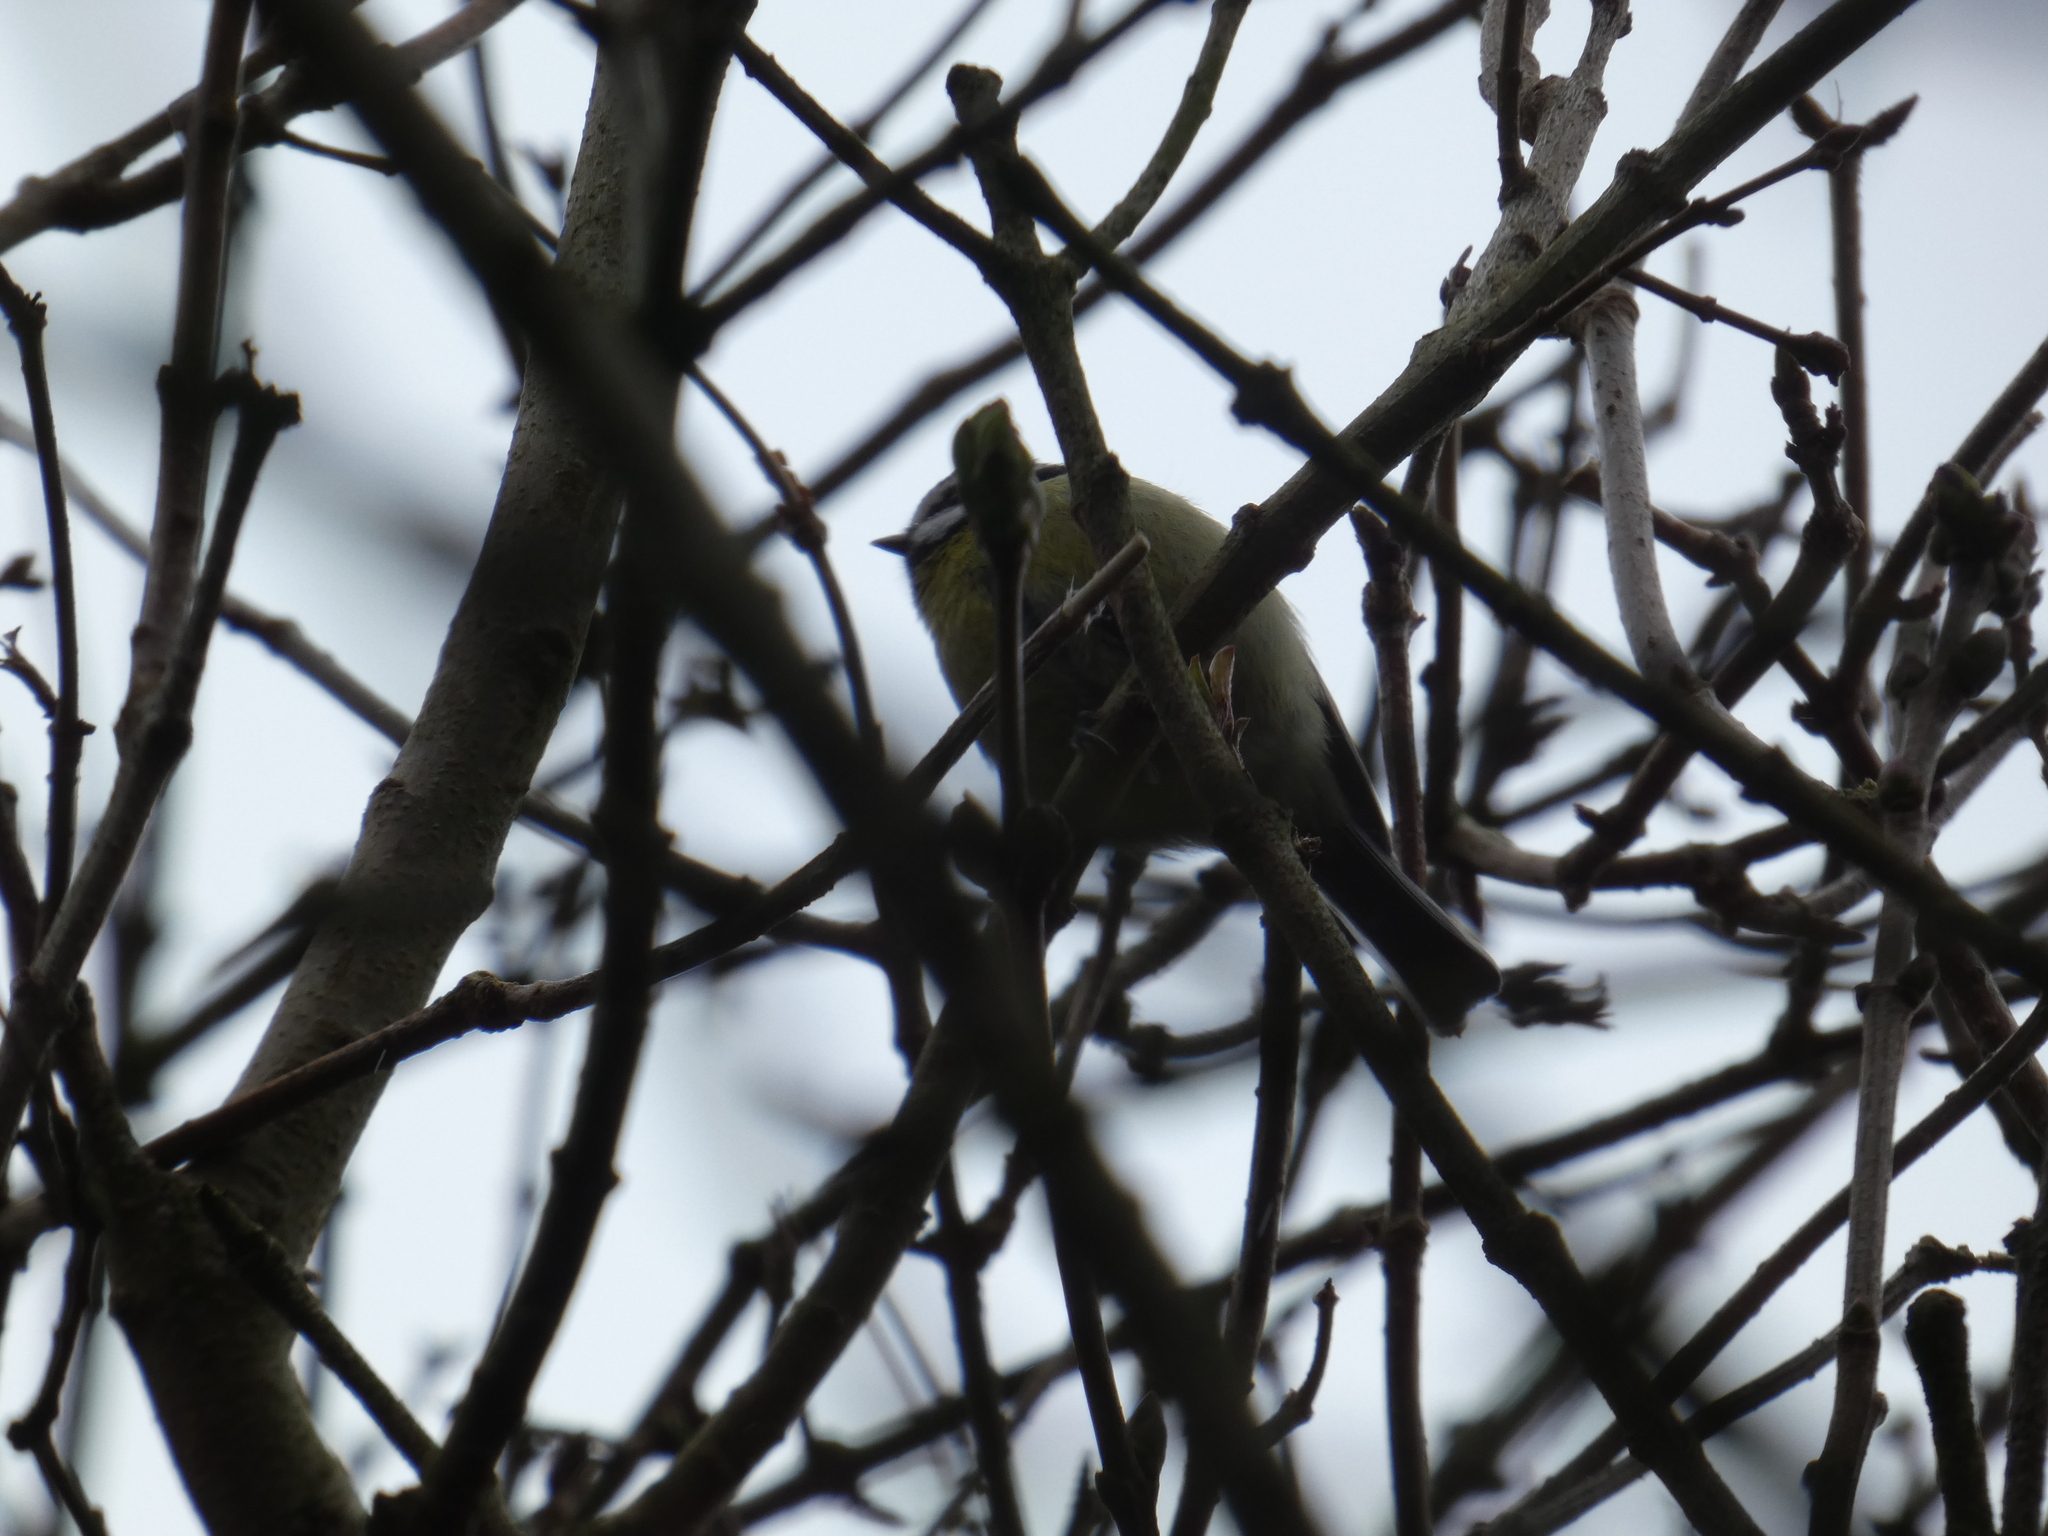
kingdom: Animalia
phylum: Chordata
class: Aves
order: Passeriformes
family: Paridae
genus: Cyanistes
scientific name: Cyanistes caeruleus
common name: Eurasian blue tit
